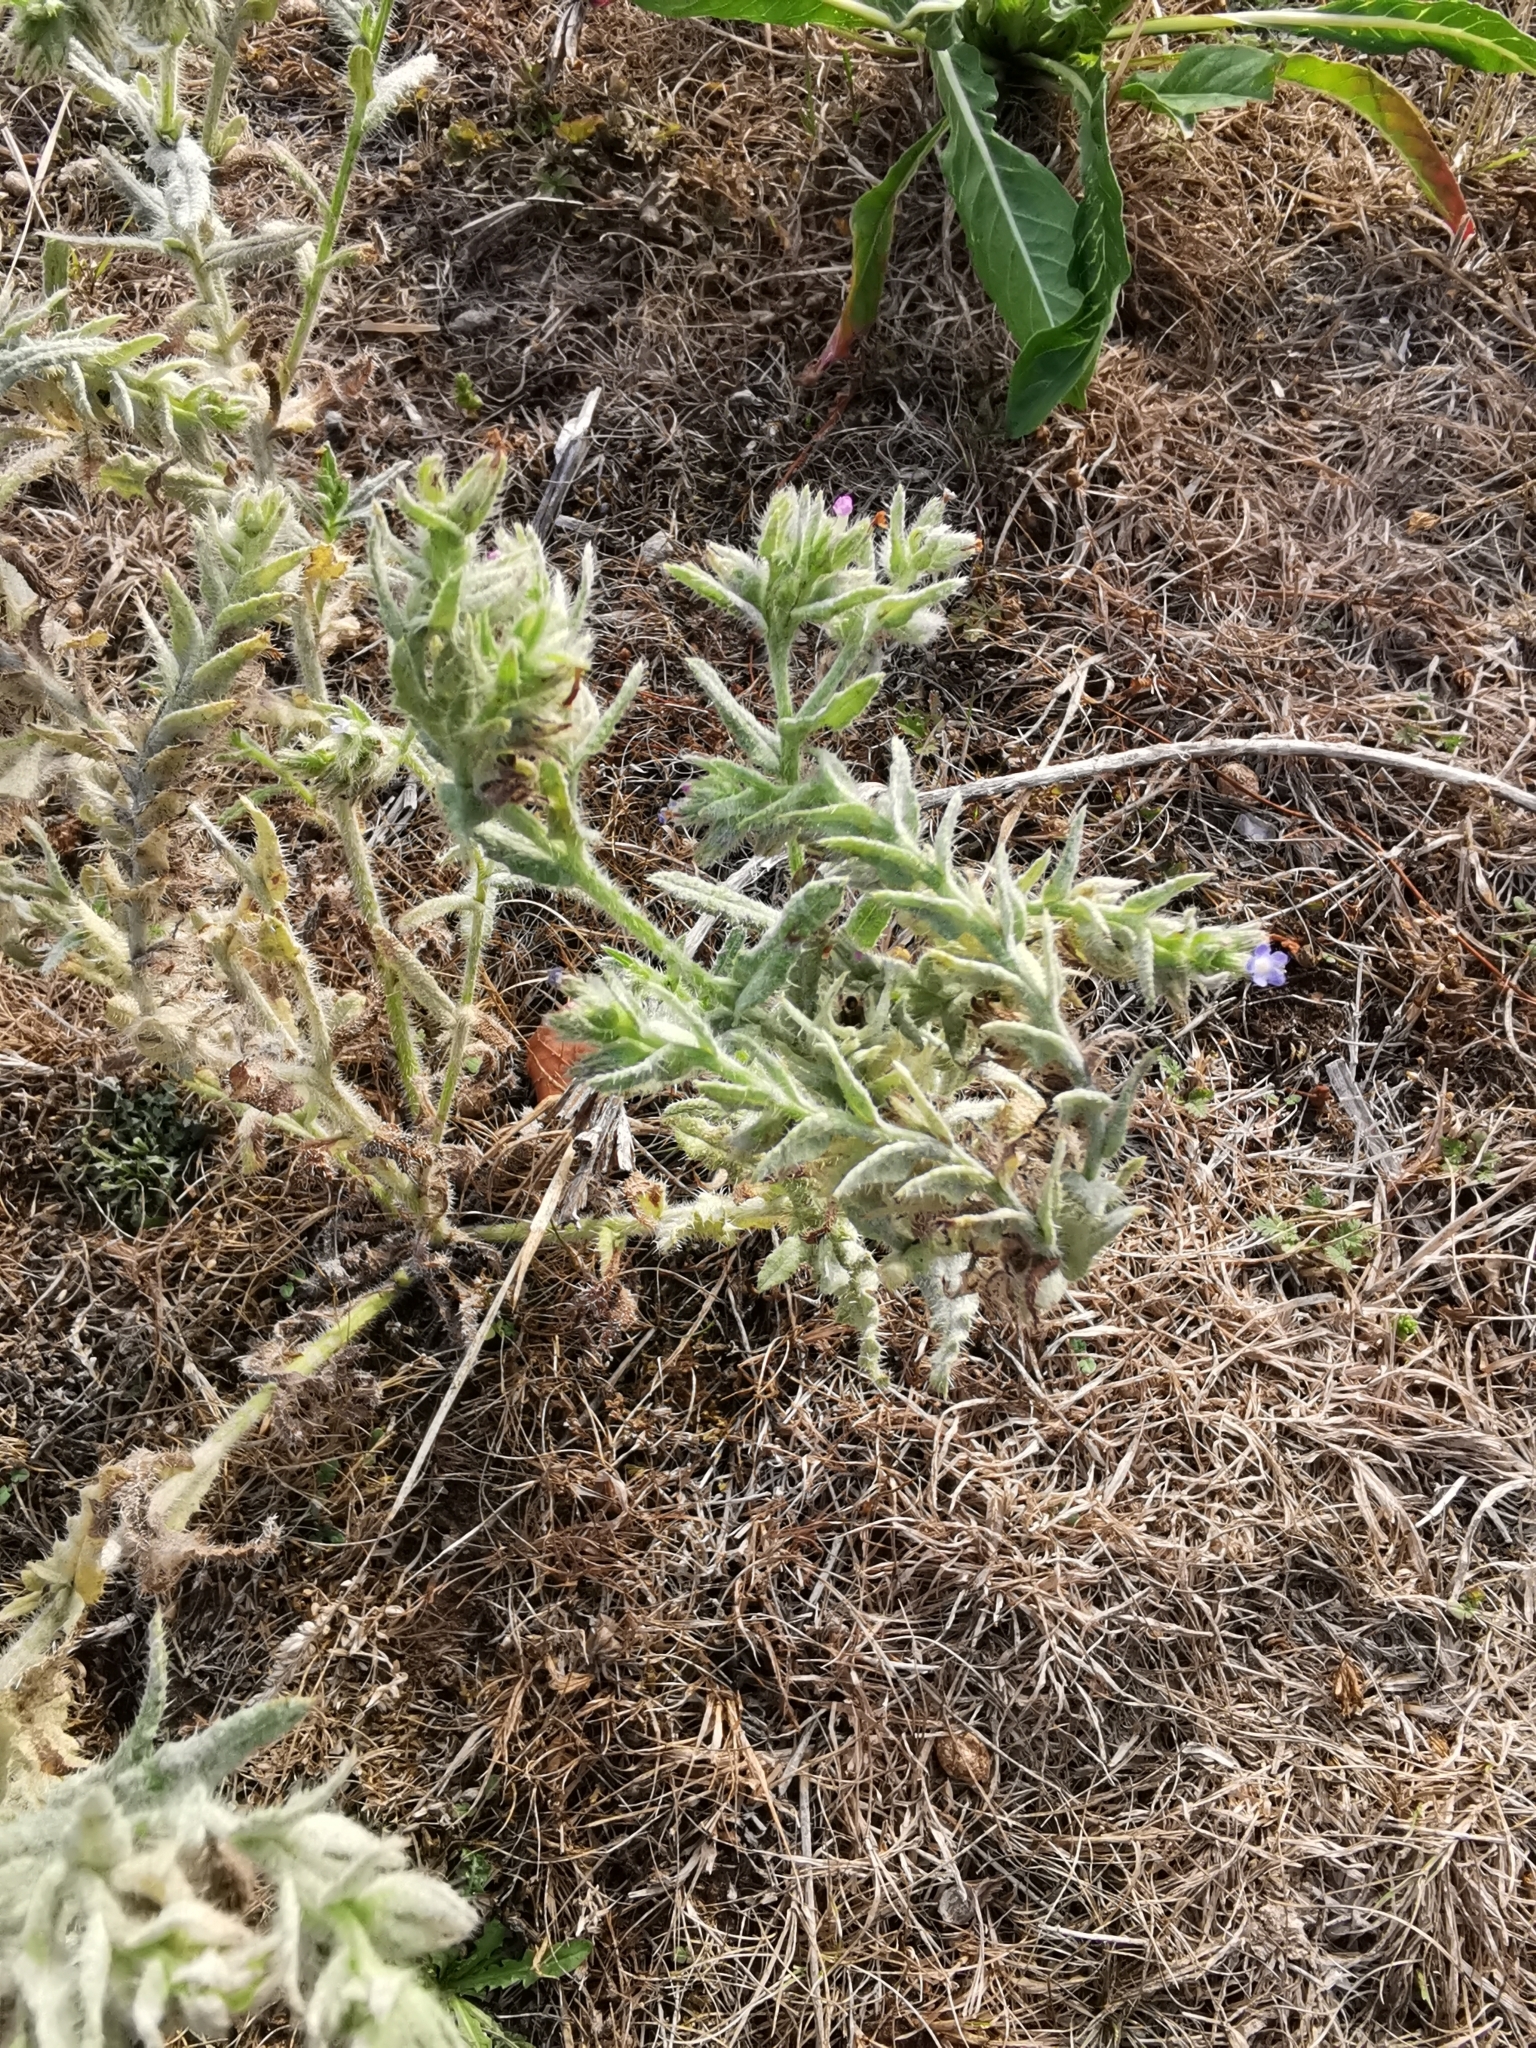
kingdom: Plantae
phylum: Tracheophyta
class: Magnoliopsida
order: Boraginales
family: Boraginaceae
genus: Lycopsis
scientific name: Lycopsis arvensis
